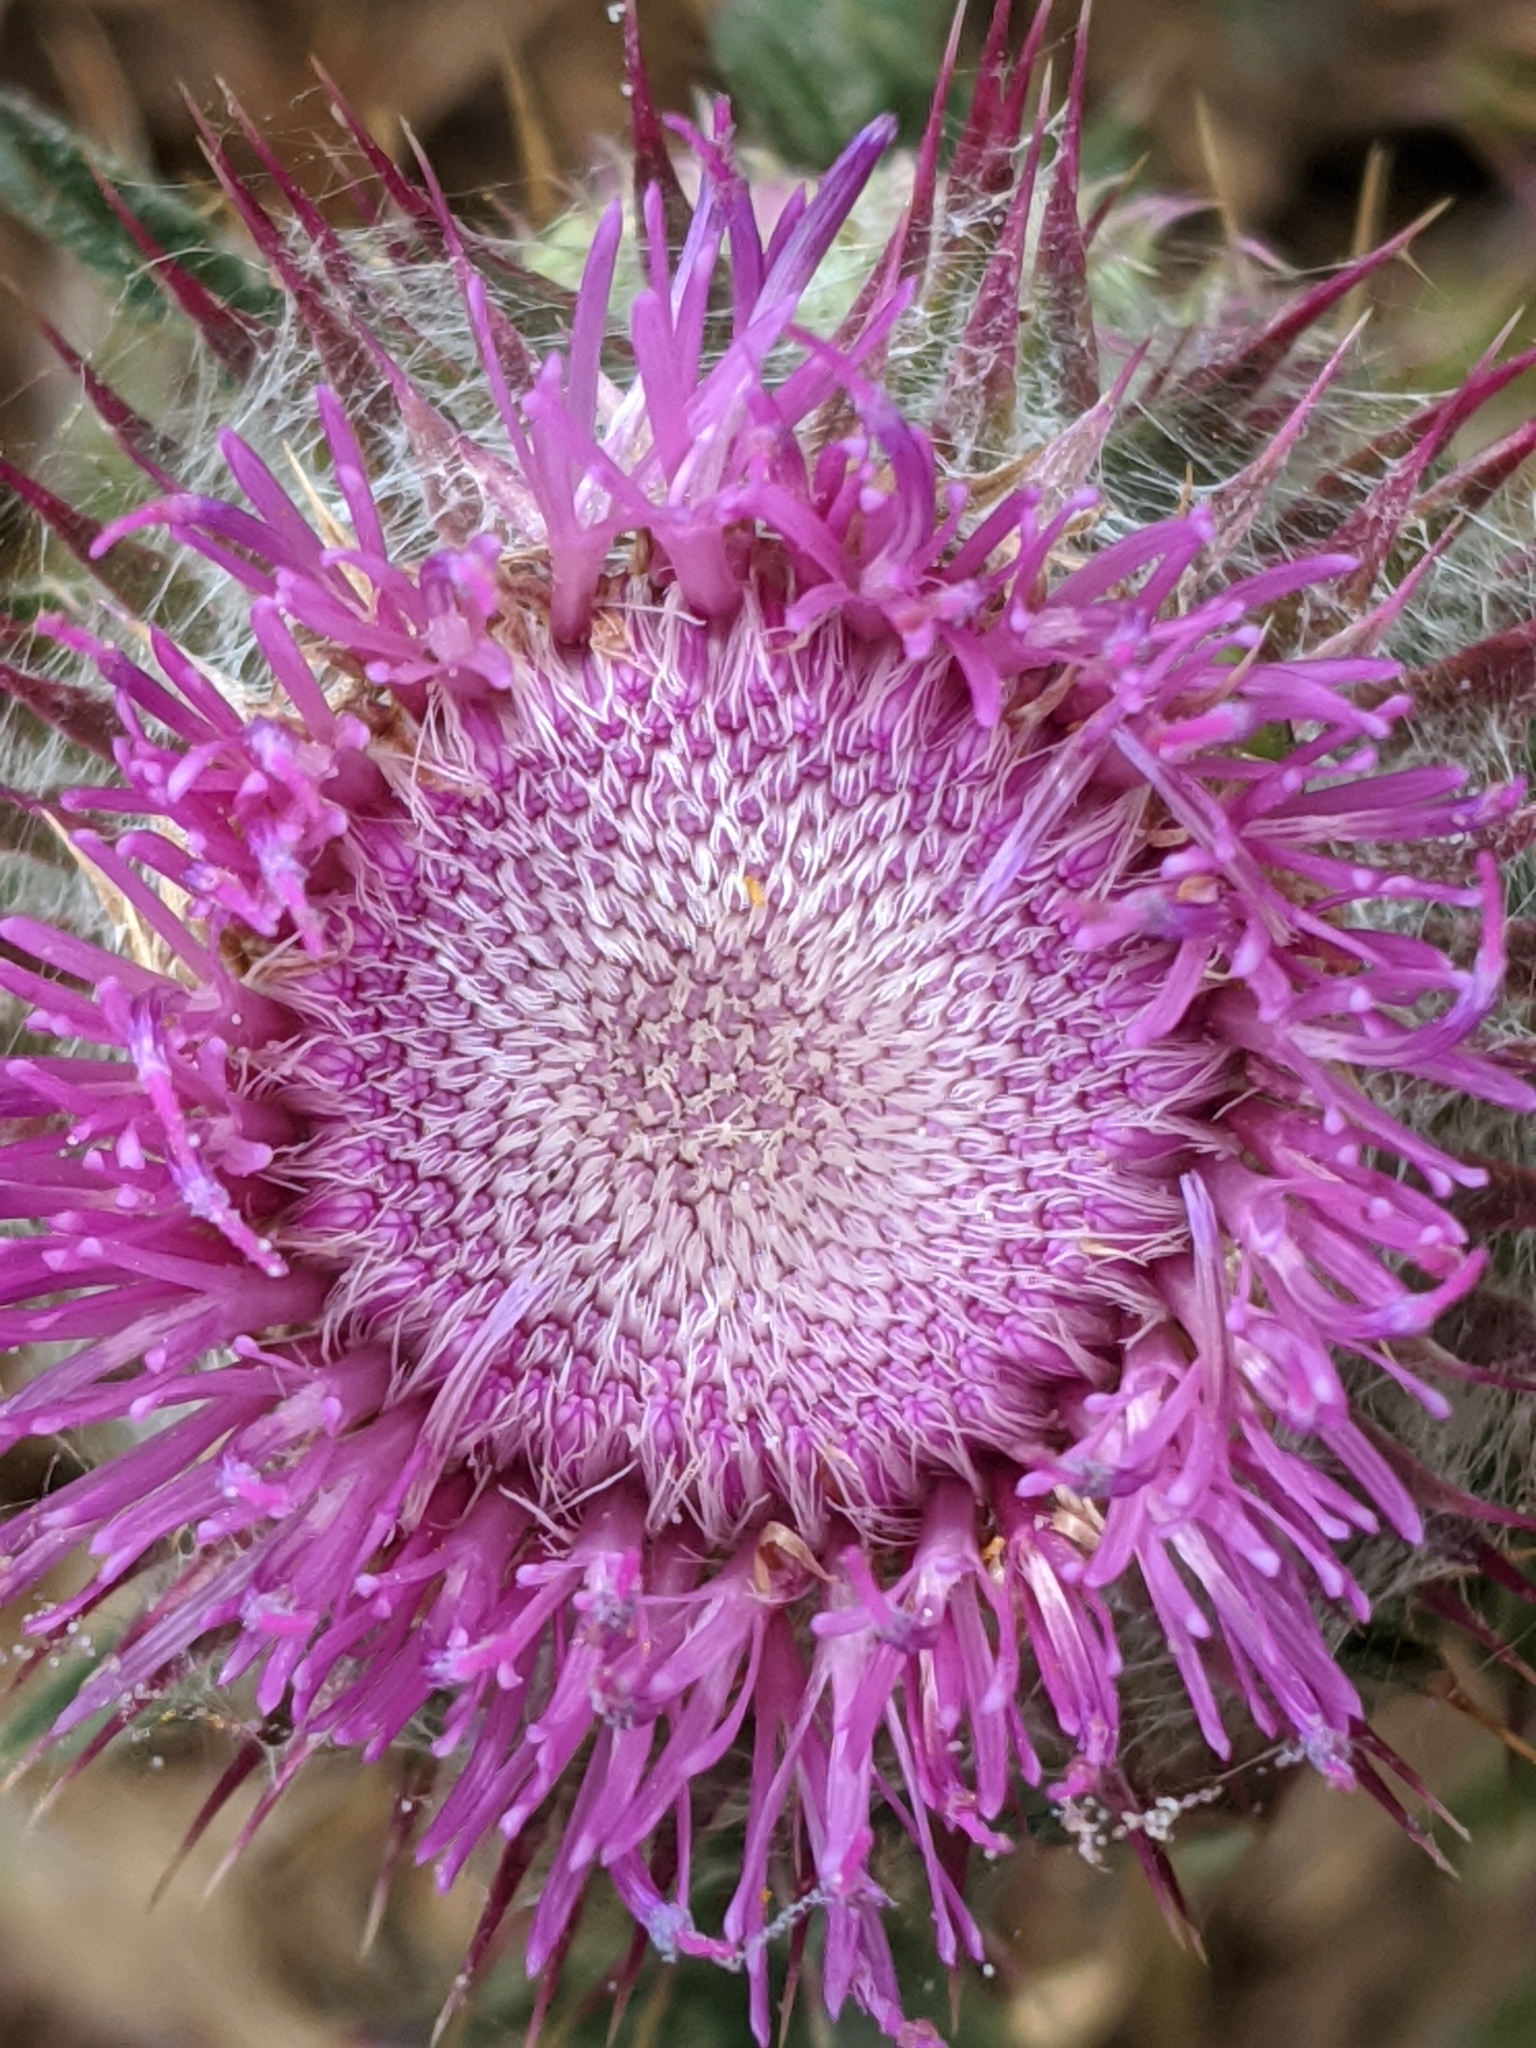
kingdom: Plantae
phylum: Tracheophyta
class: Magnoliopsida
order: Asterales
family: Asteraceae
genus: Carduus
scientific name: Carduus nutans
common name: Musk thistle
